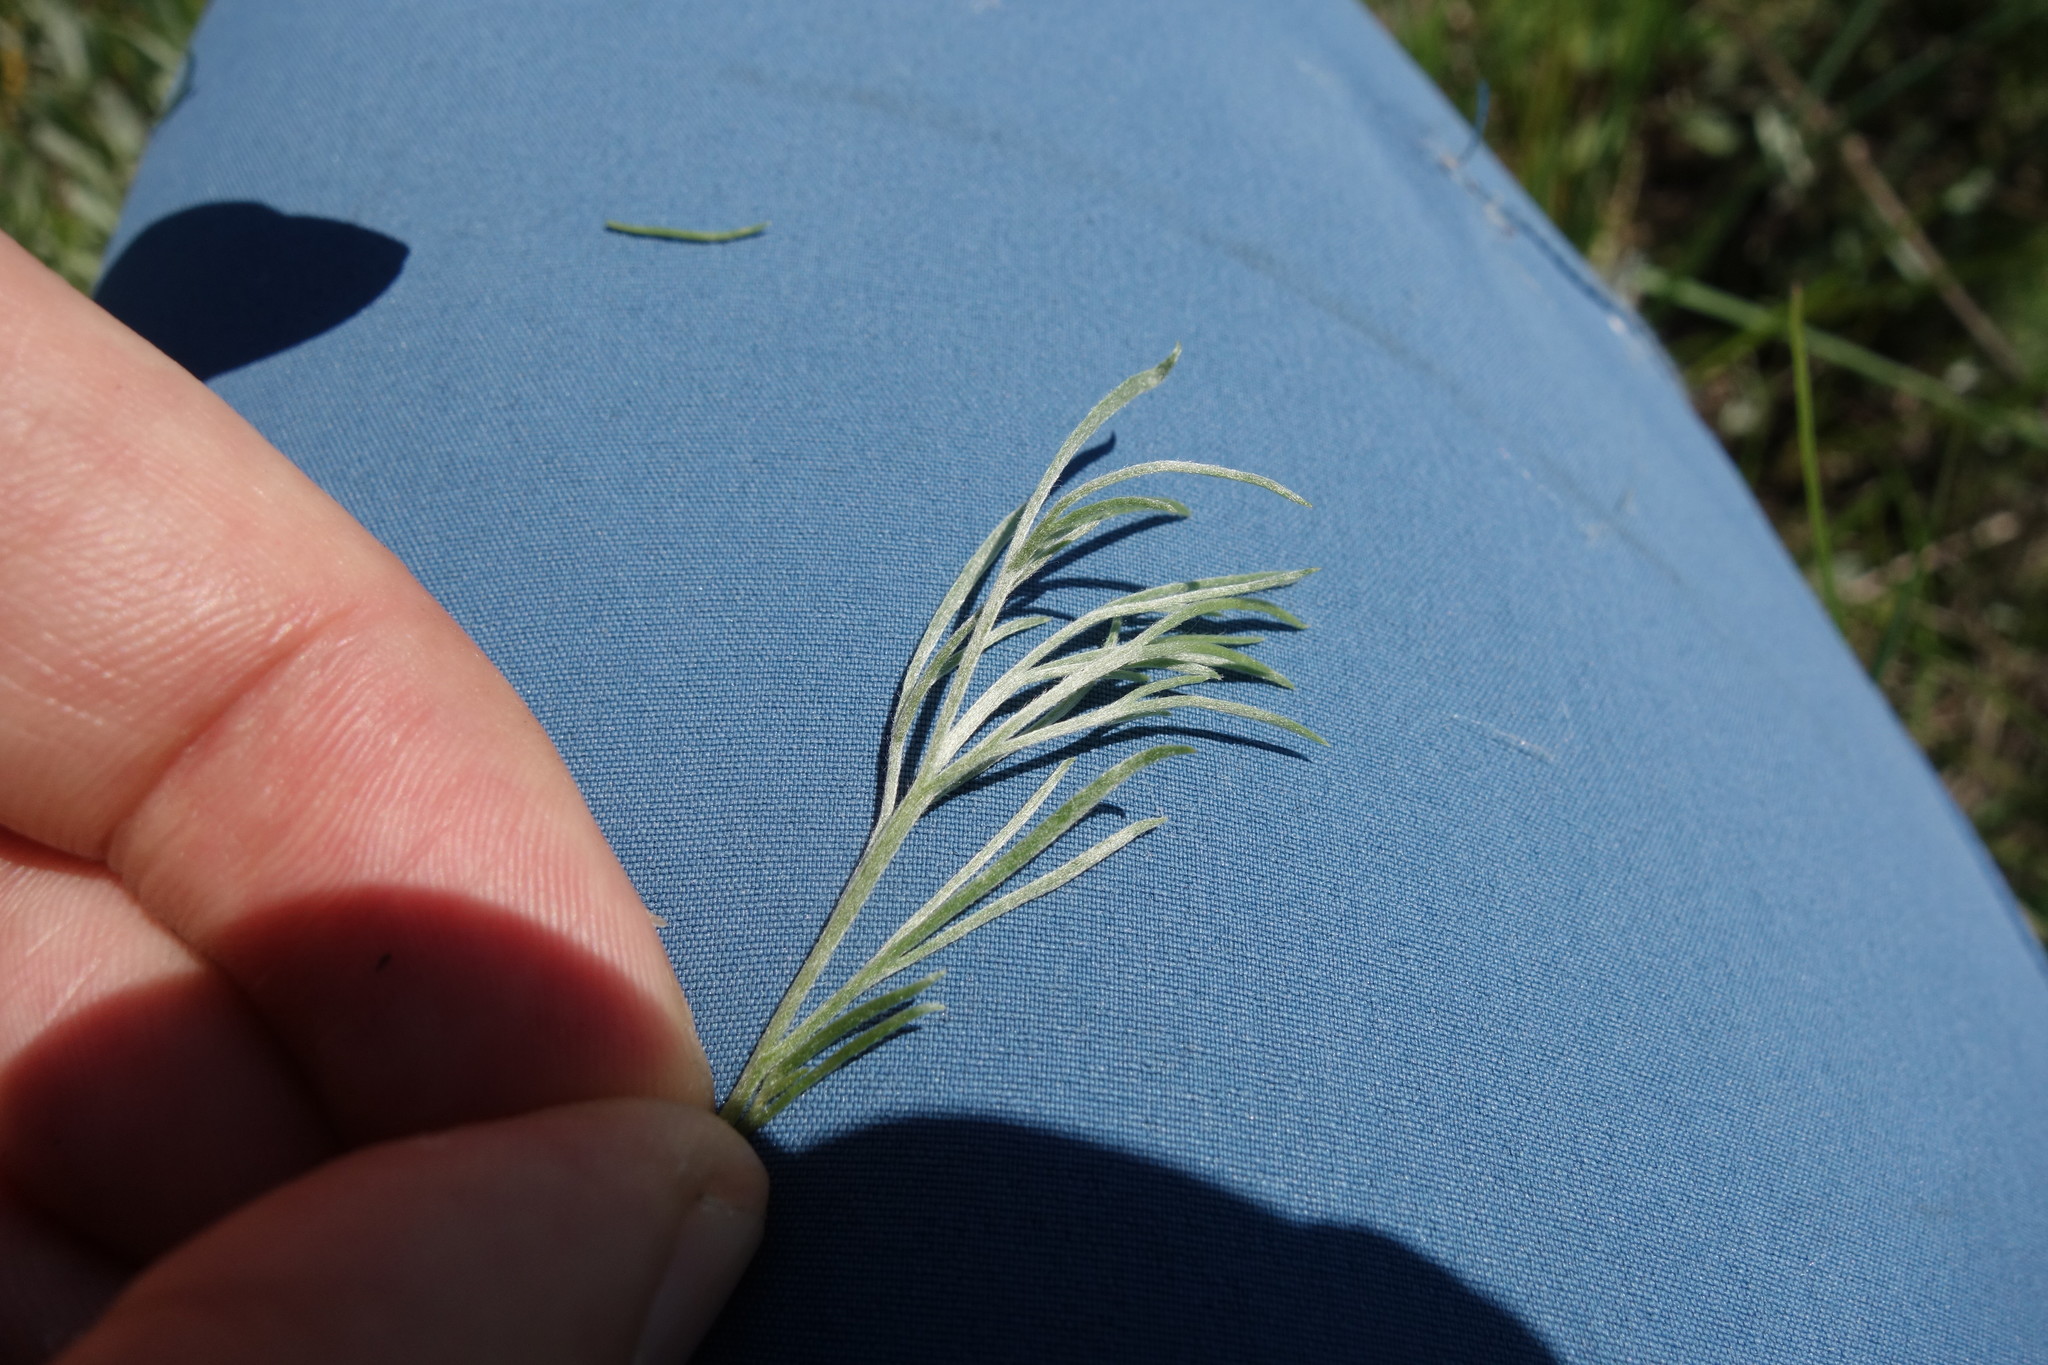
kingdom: Plantae
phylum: Tracheophyta
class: Magnoliopsida
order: Asterales
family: Asteraceae
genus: Artemisia
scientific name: Artemisia campestris
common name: Field wormwood
